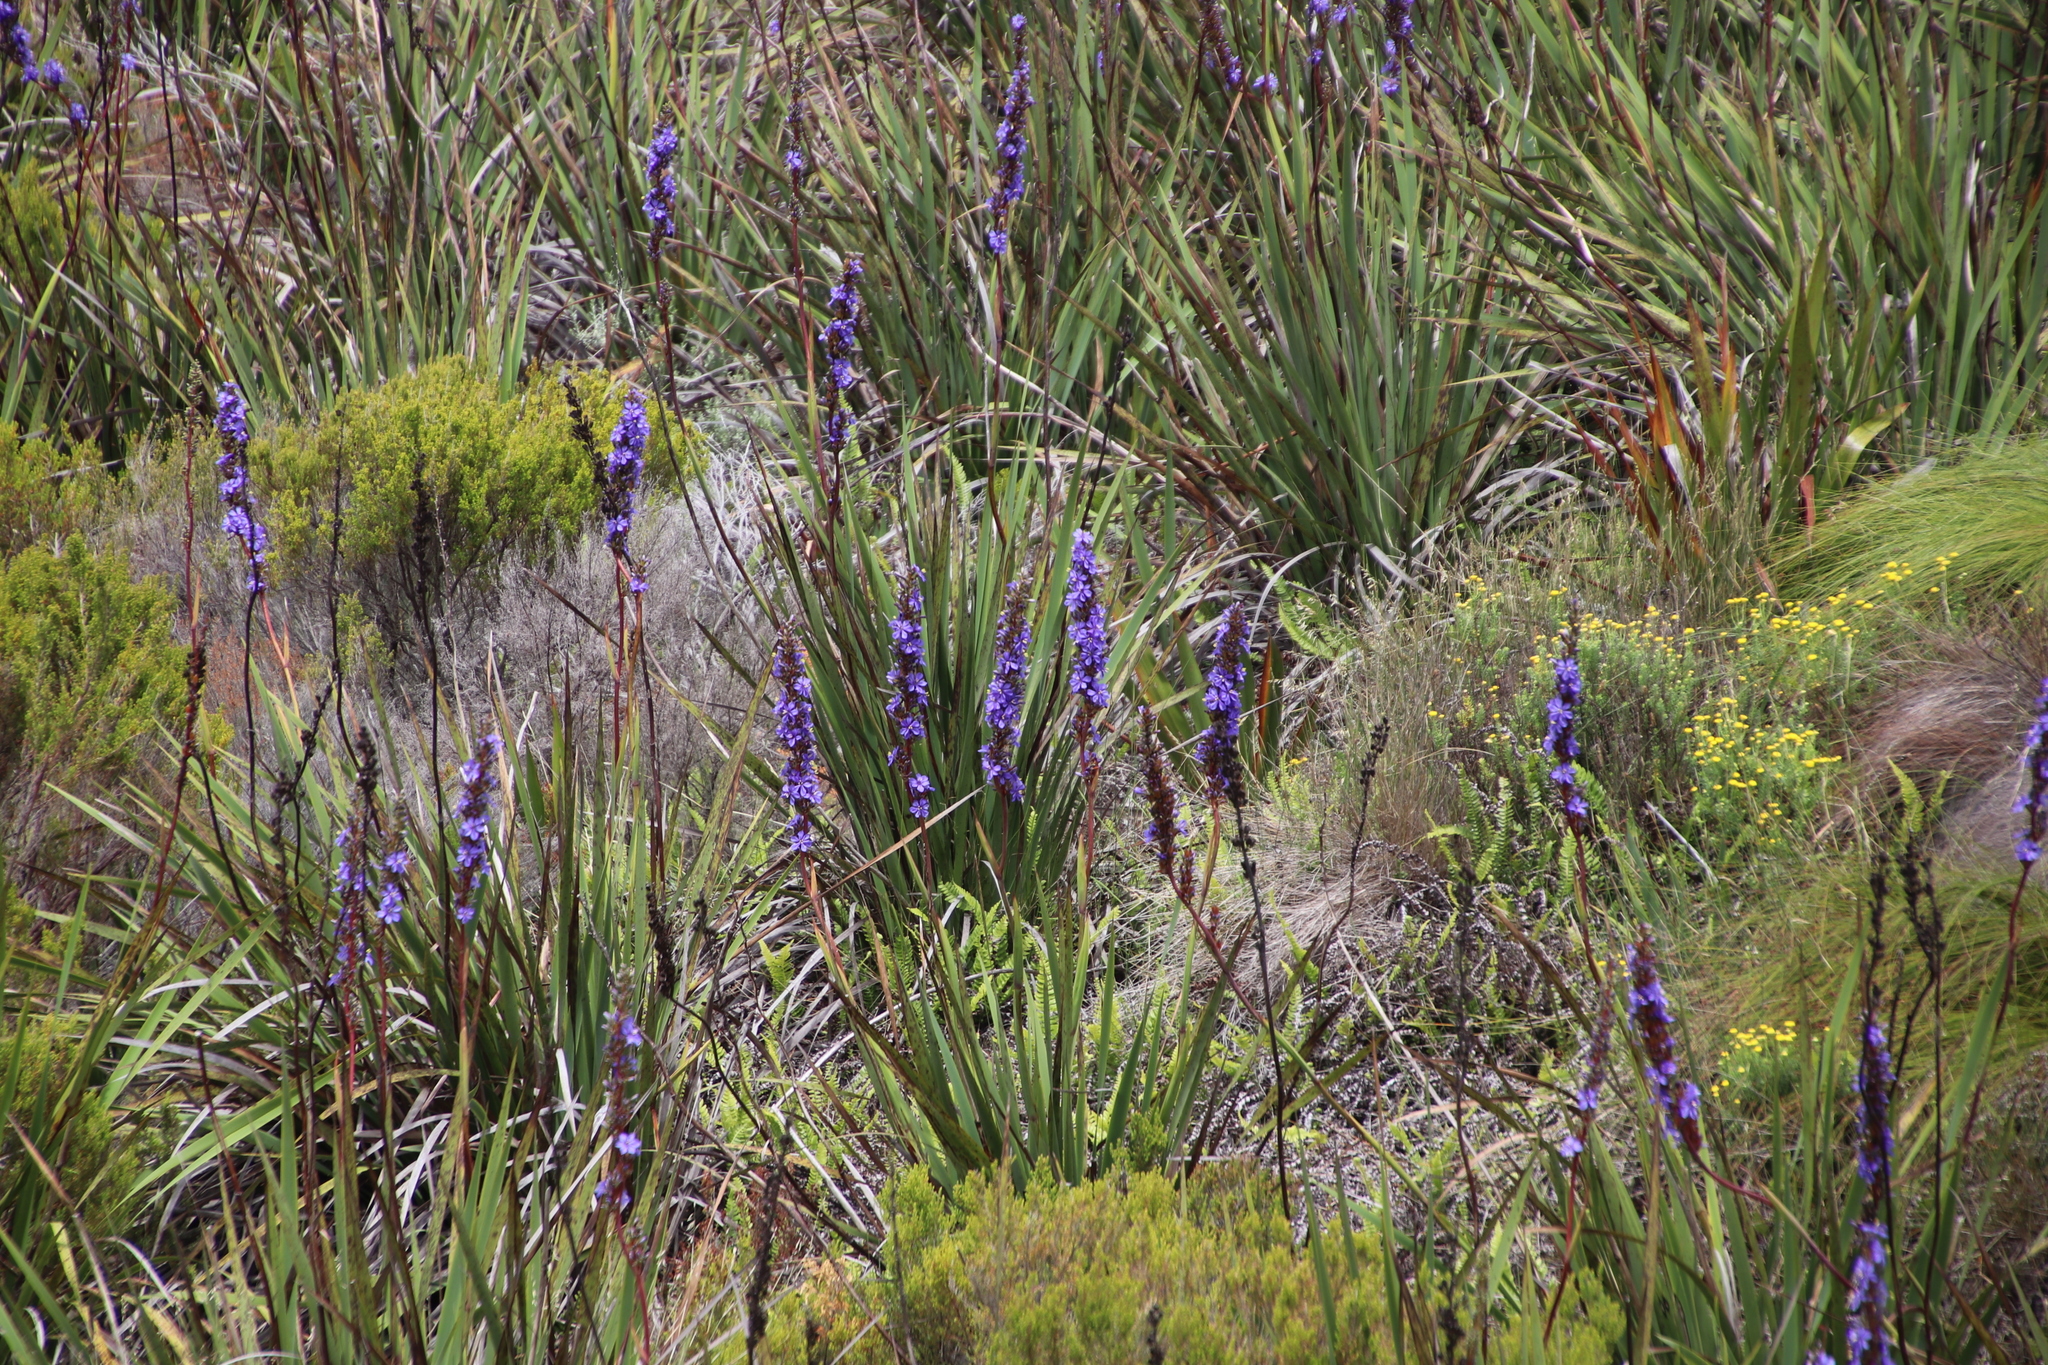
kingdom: Plantae
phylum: Tracheophyta
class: Liliopsida
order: Asparagales
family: Iridaceae
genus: Aristea
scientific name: Aristea capitata
